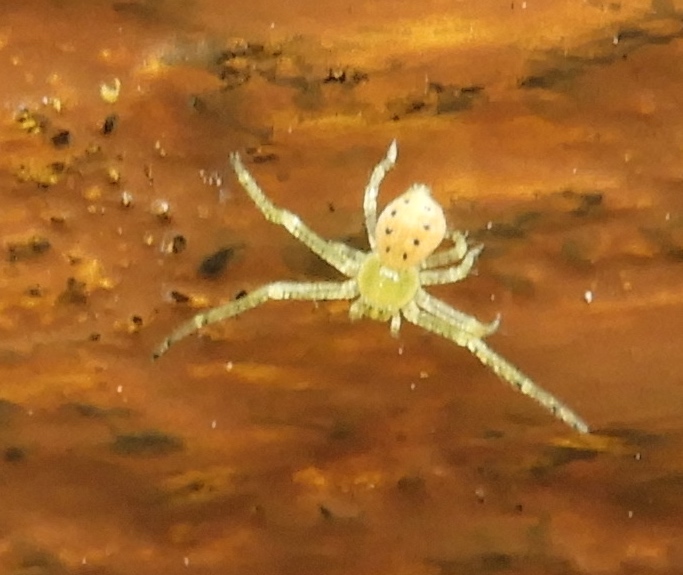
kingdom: Animalia
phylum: Arthropoda
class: Arachnida
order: Araneae
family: Thomisidae
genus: Isaloides
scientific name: Isaloides
